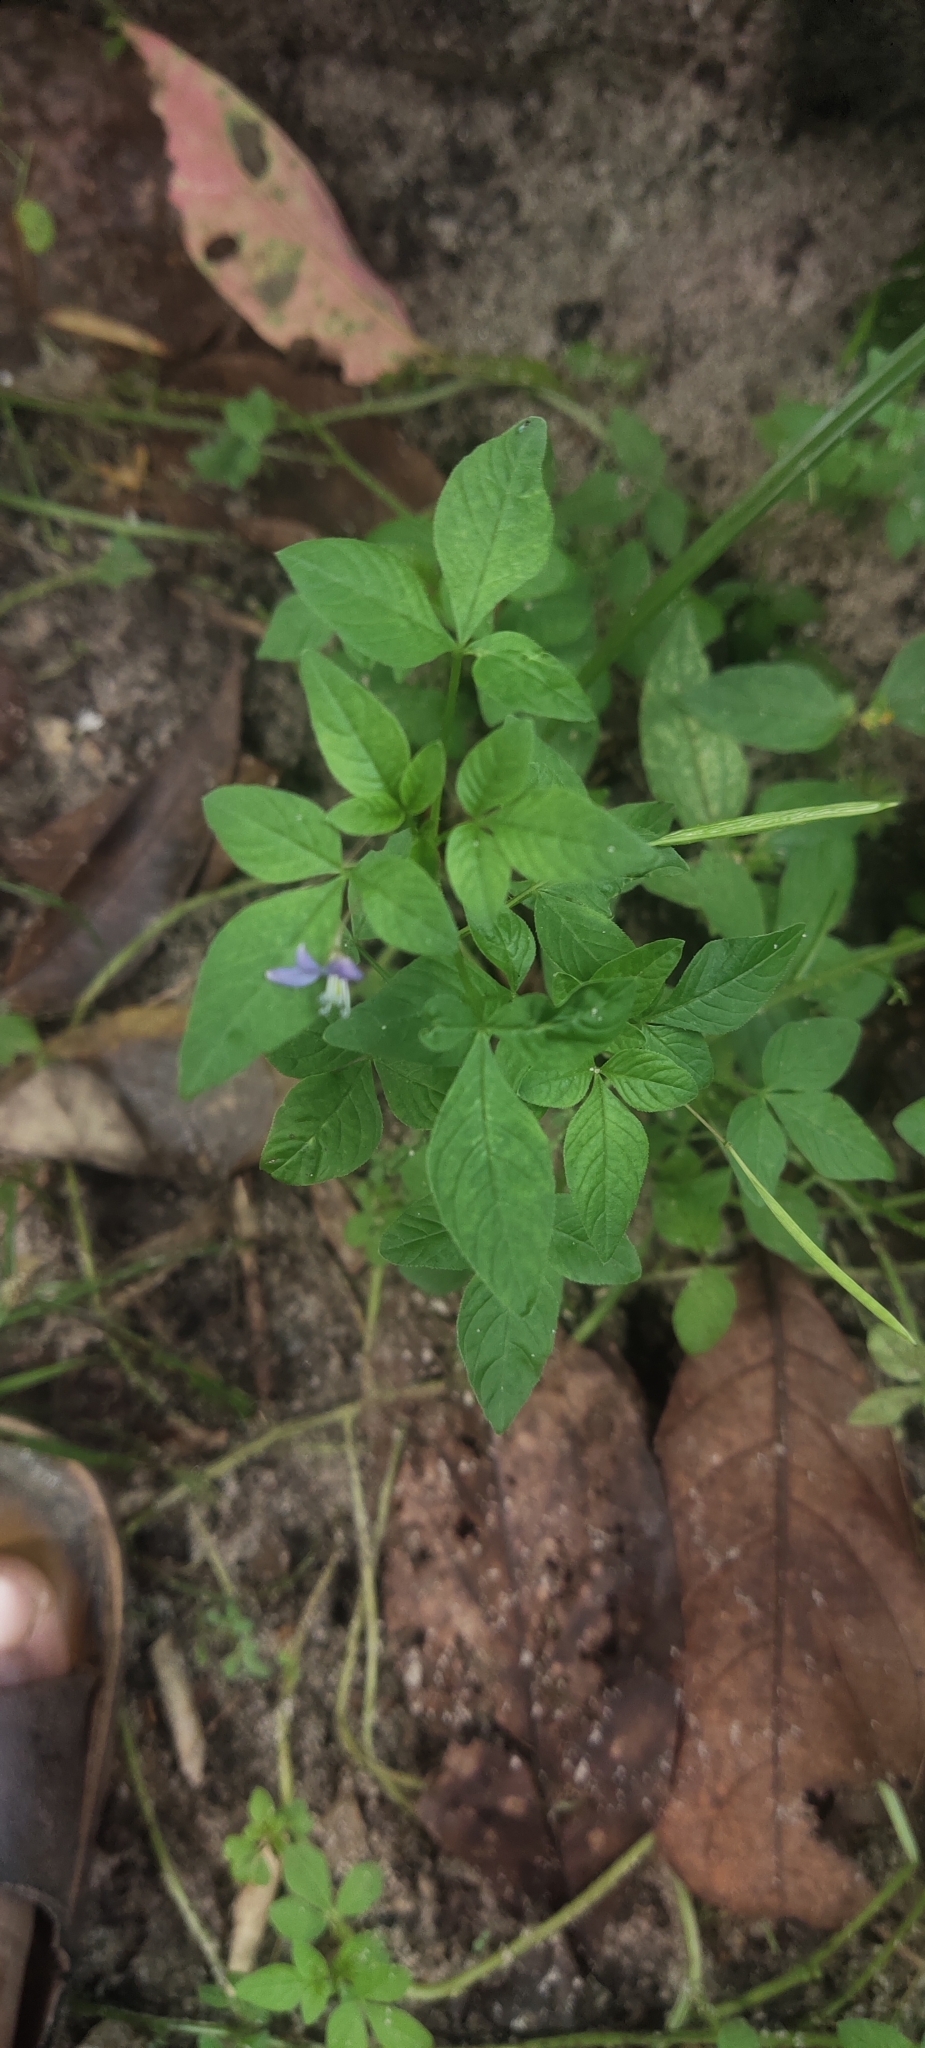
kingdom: Plantae
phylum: Tracheophyta
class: Magnoliopsida
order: Brassicales
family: Cleomaceae
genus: Sieruela
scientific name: Sieruela rutidosperma
